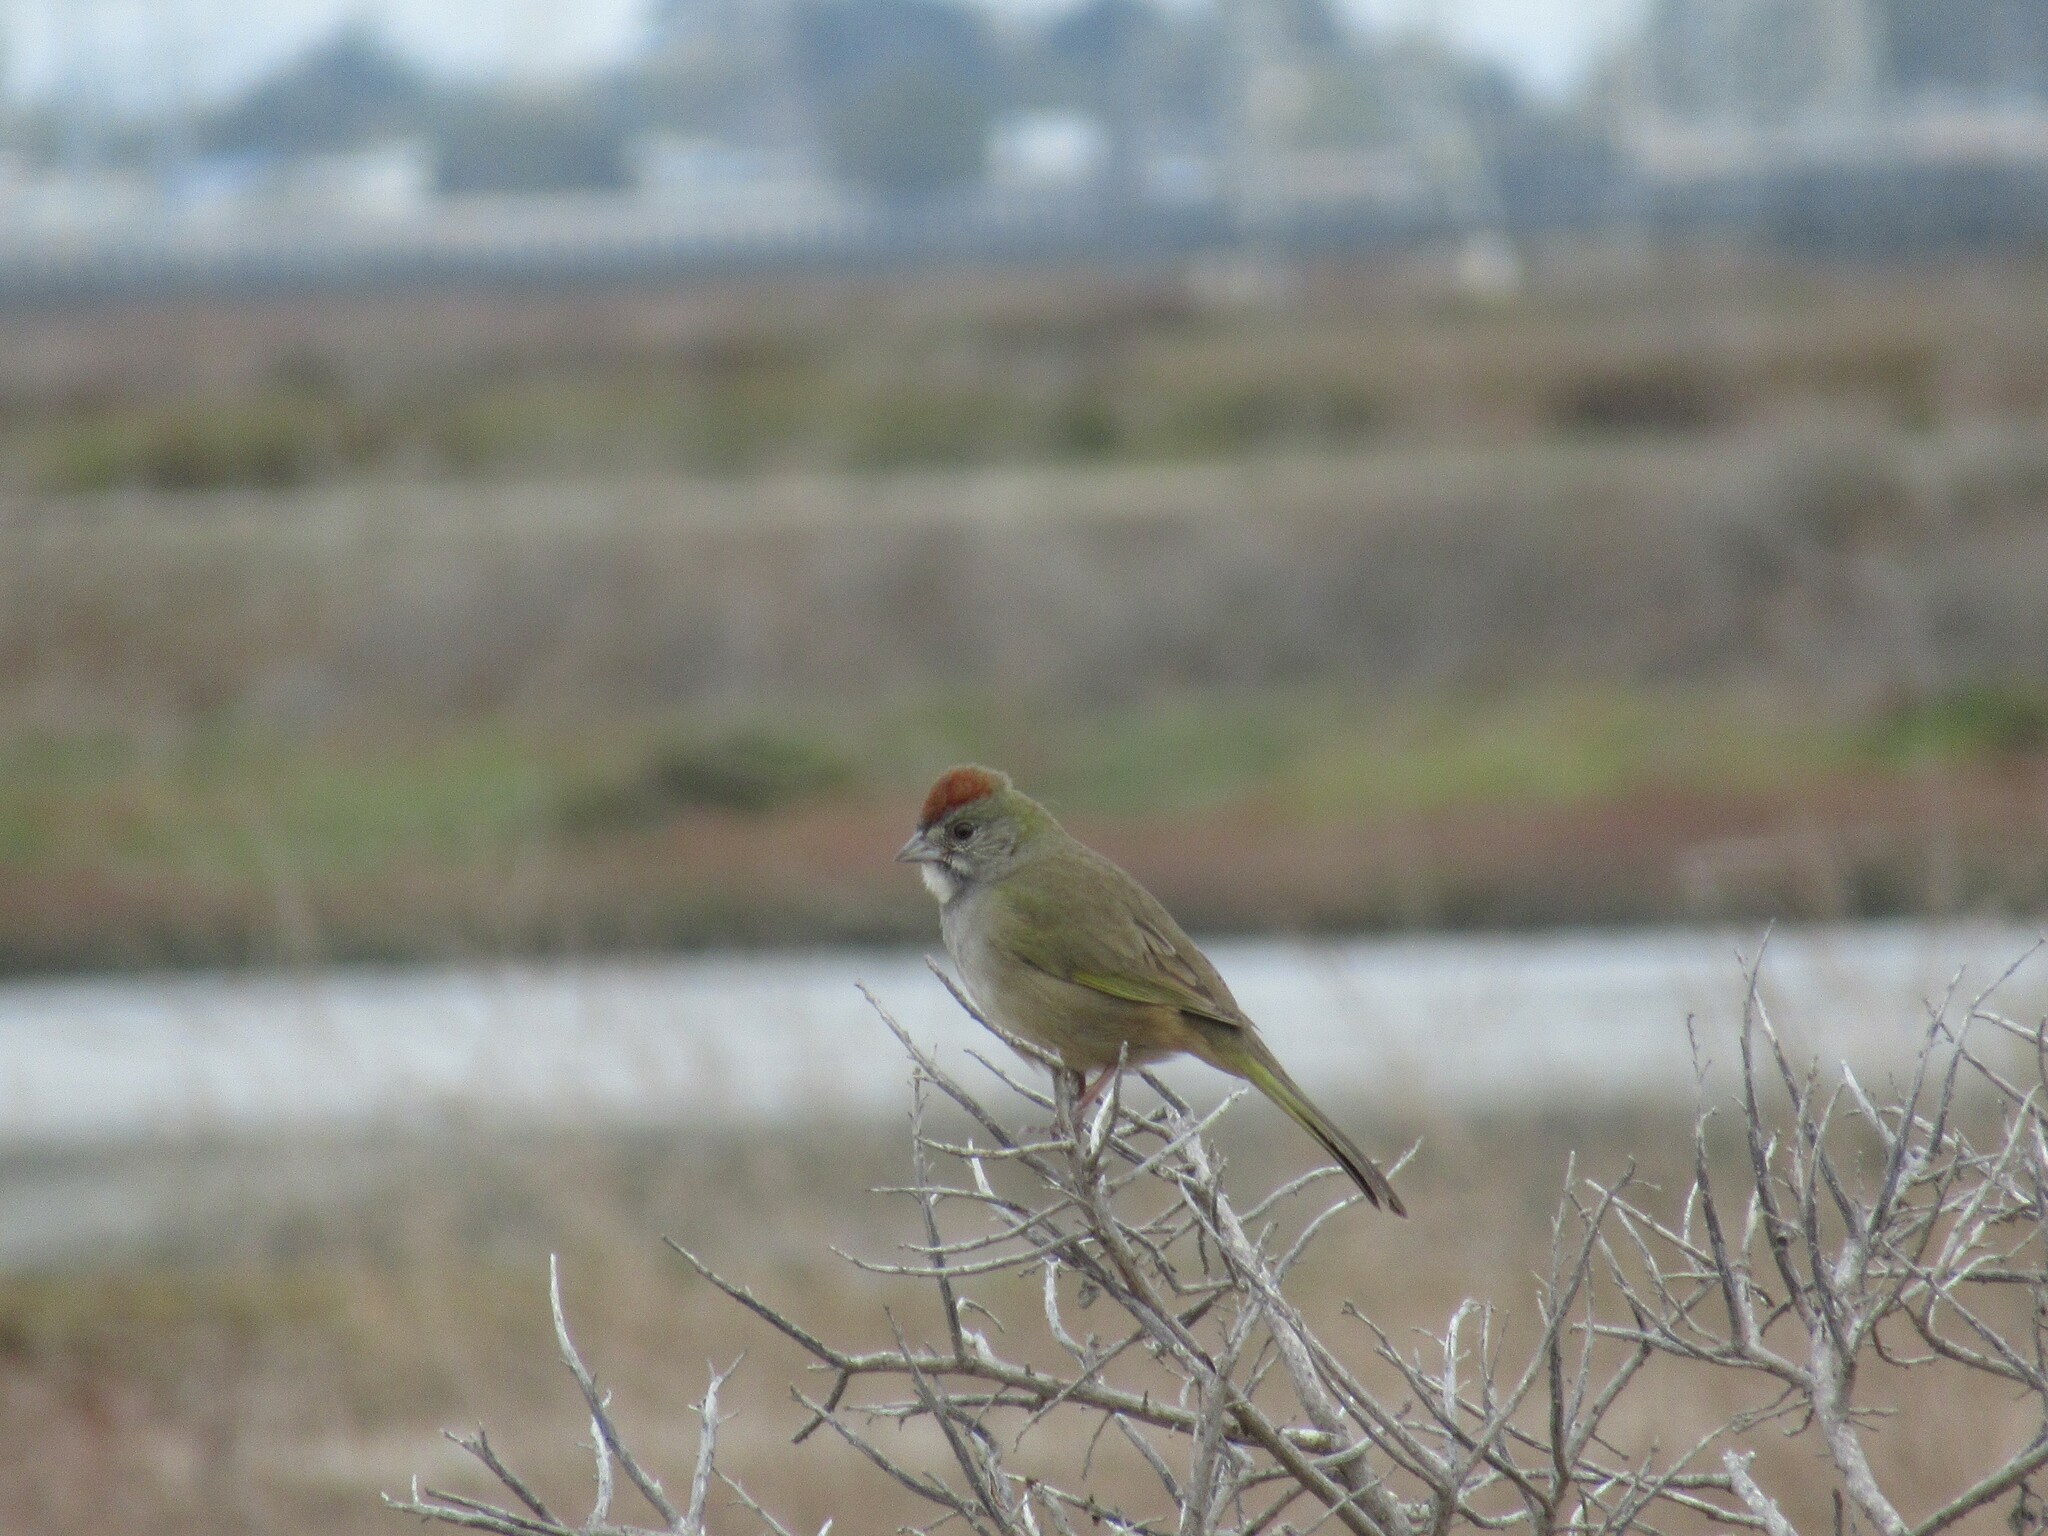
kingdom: Animalia
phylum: Chordata
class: Aves
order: Passeriformes
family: Passerellidae
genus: Pipilo
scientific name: Pipilo chlorurus
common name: Green-tailed towhee
